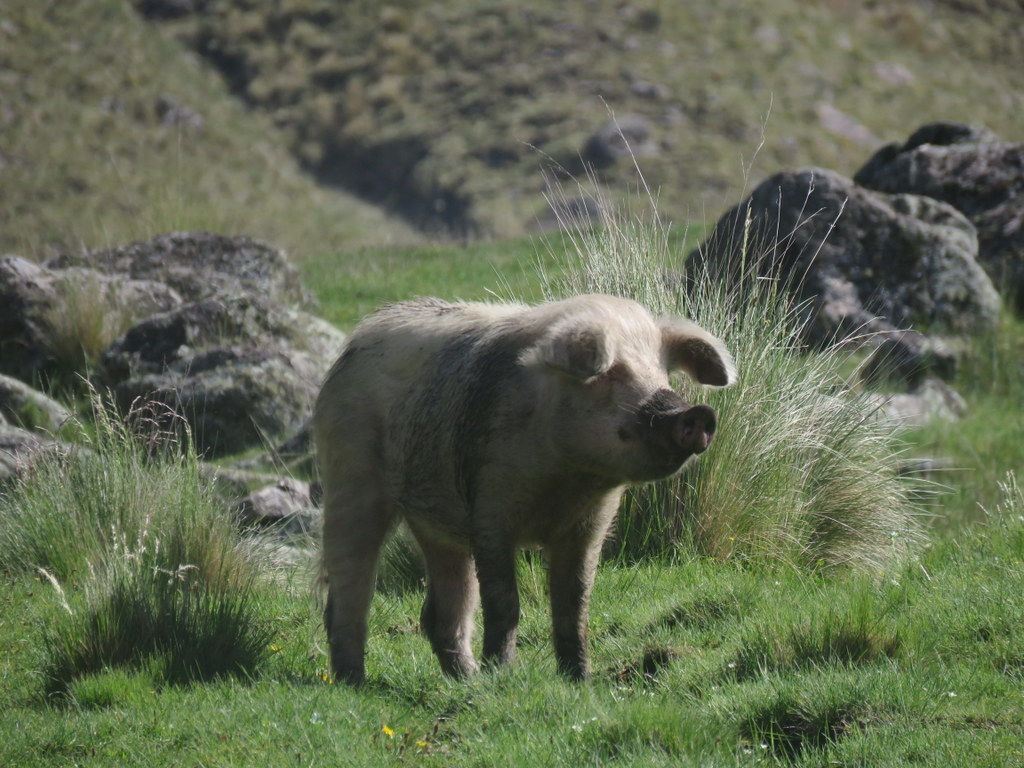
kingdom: Animalia
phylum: Chordata
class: Mammalia
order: Artiodactyla
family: Suidae
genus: Sus
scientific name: Sus scrofa
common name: Wild boar
